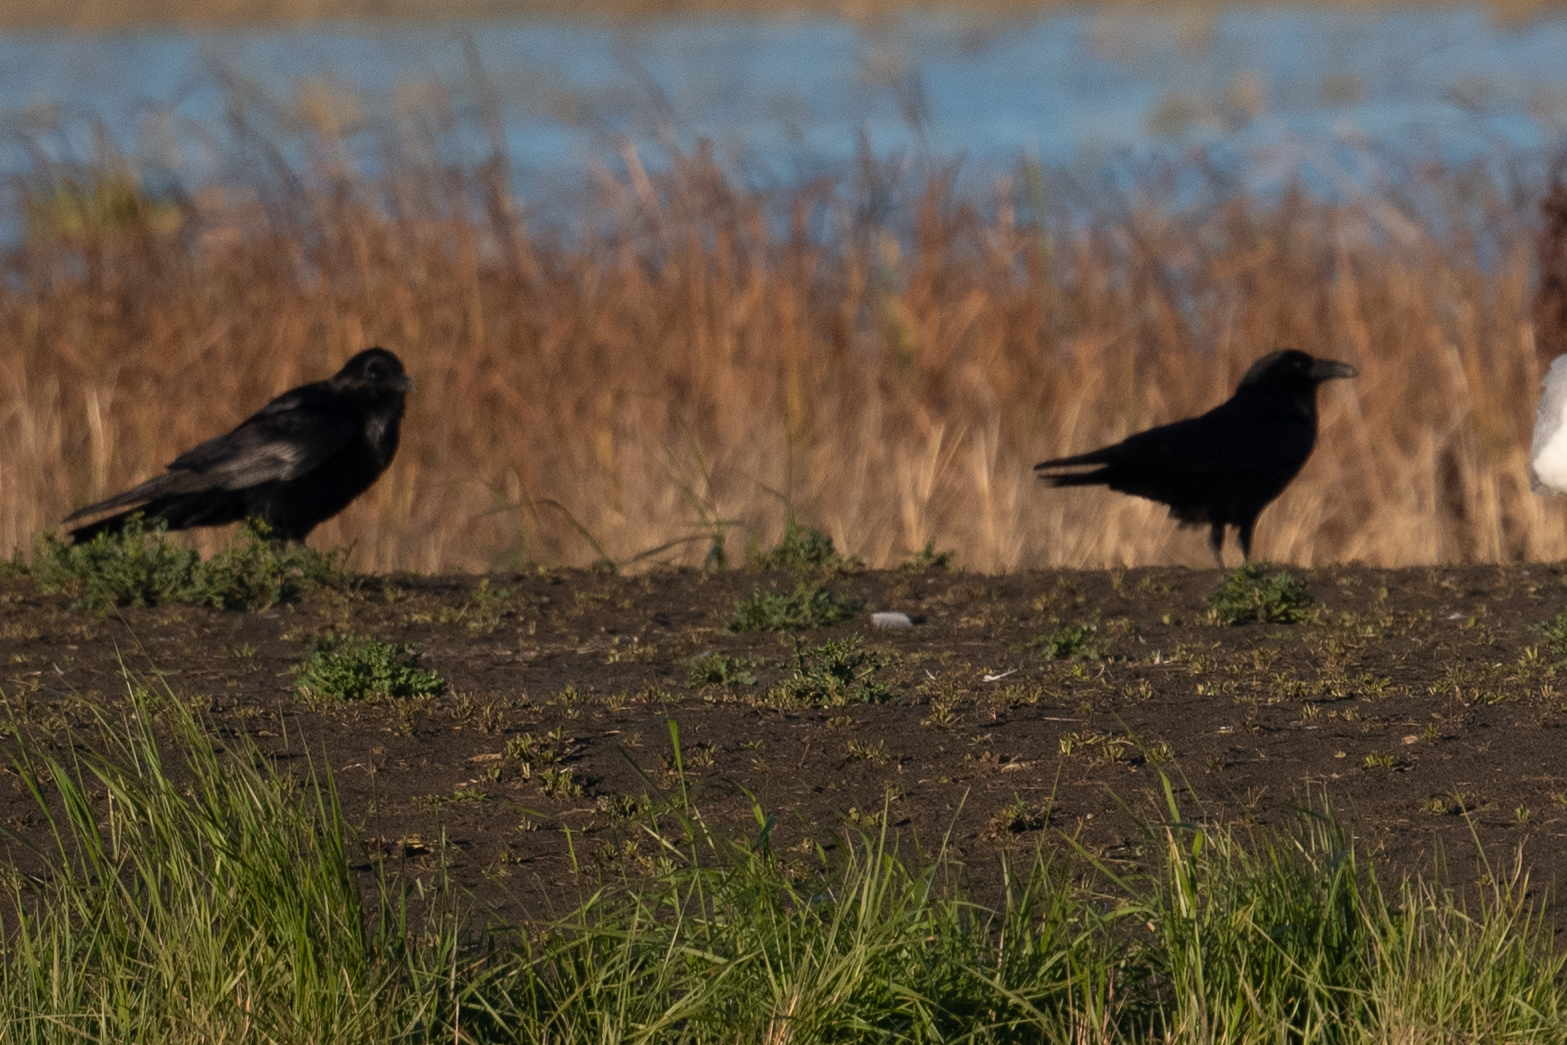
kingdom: Animalia
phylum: Chordata
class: Aves
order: Passeriformes
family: Corvidae
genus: Corvus
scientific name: Corvus corax
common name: Common raven
